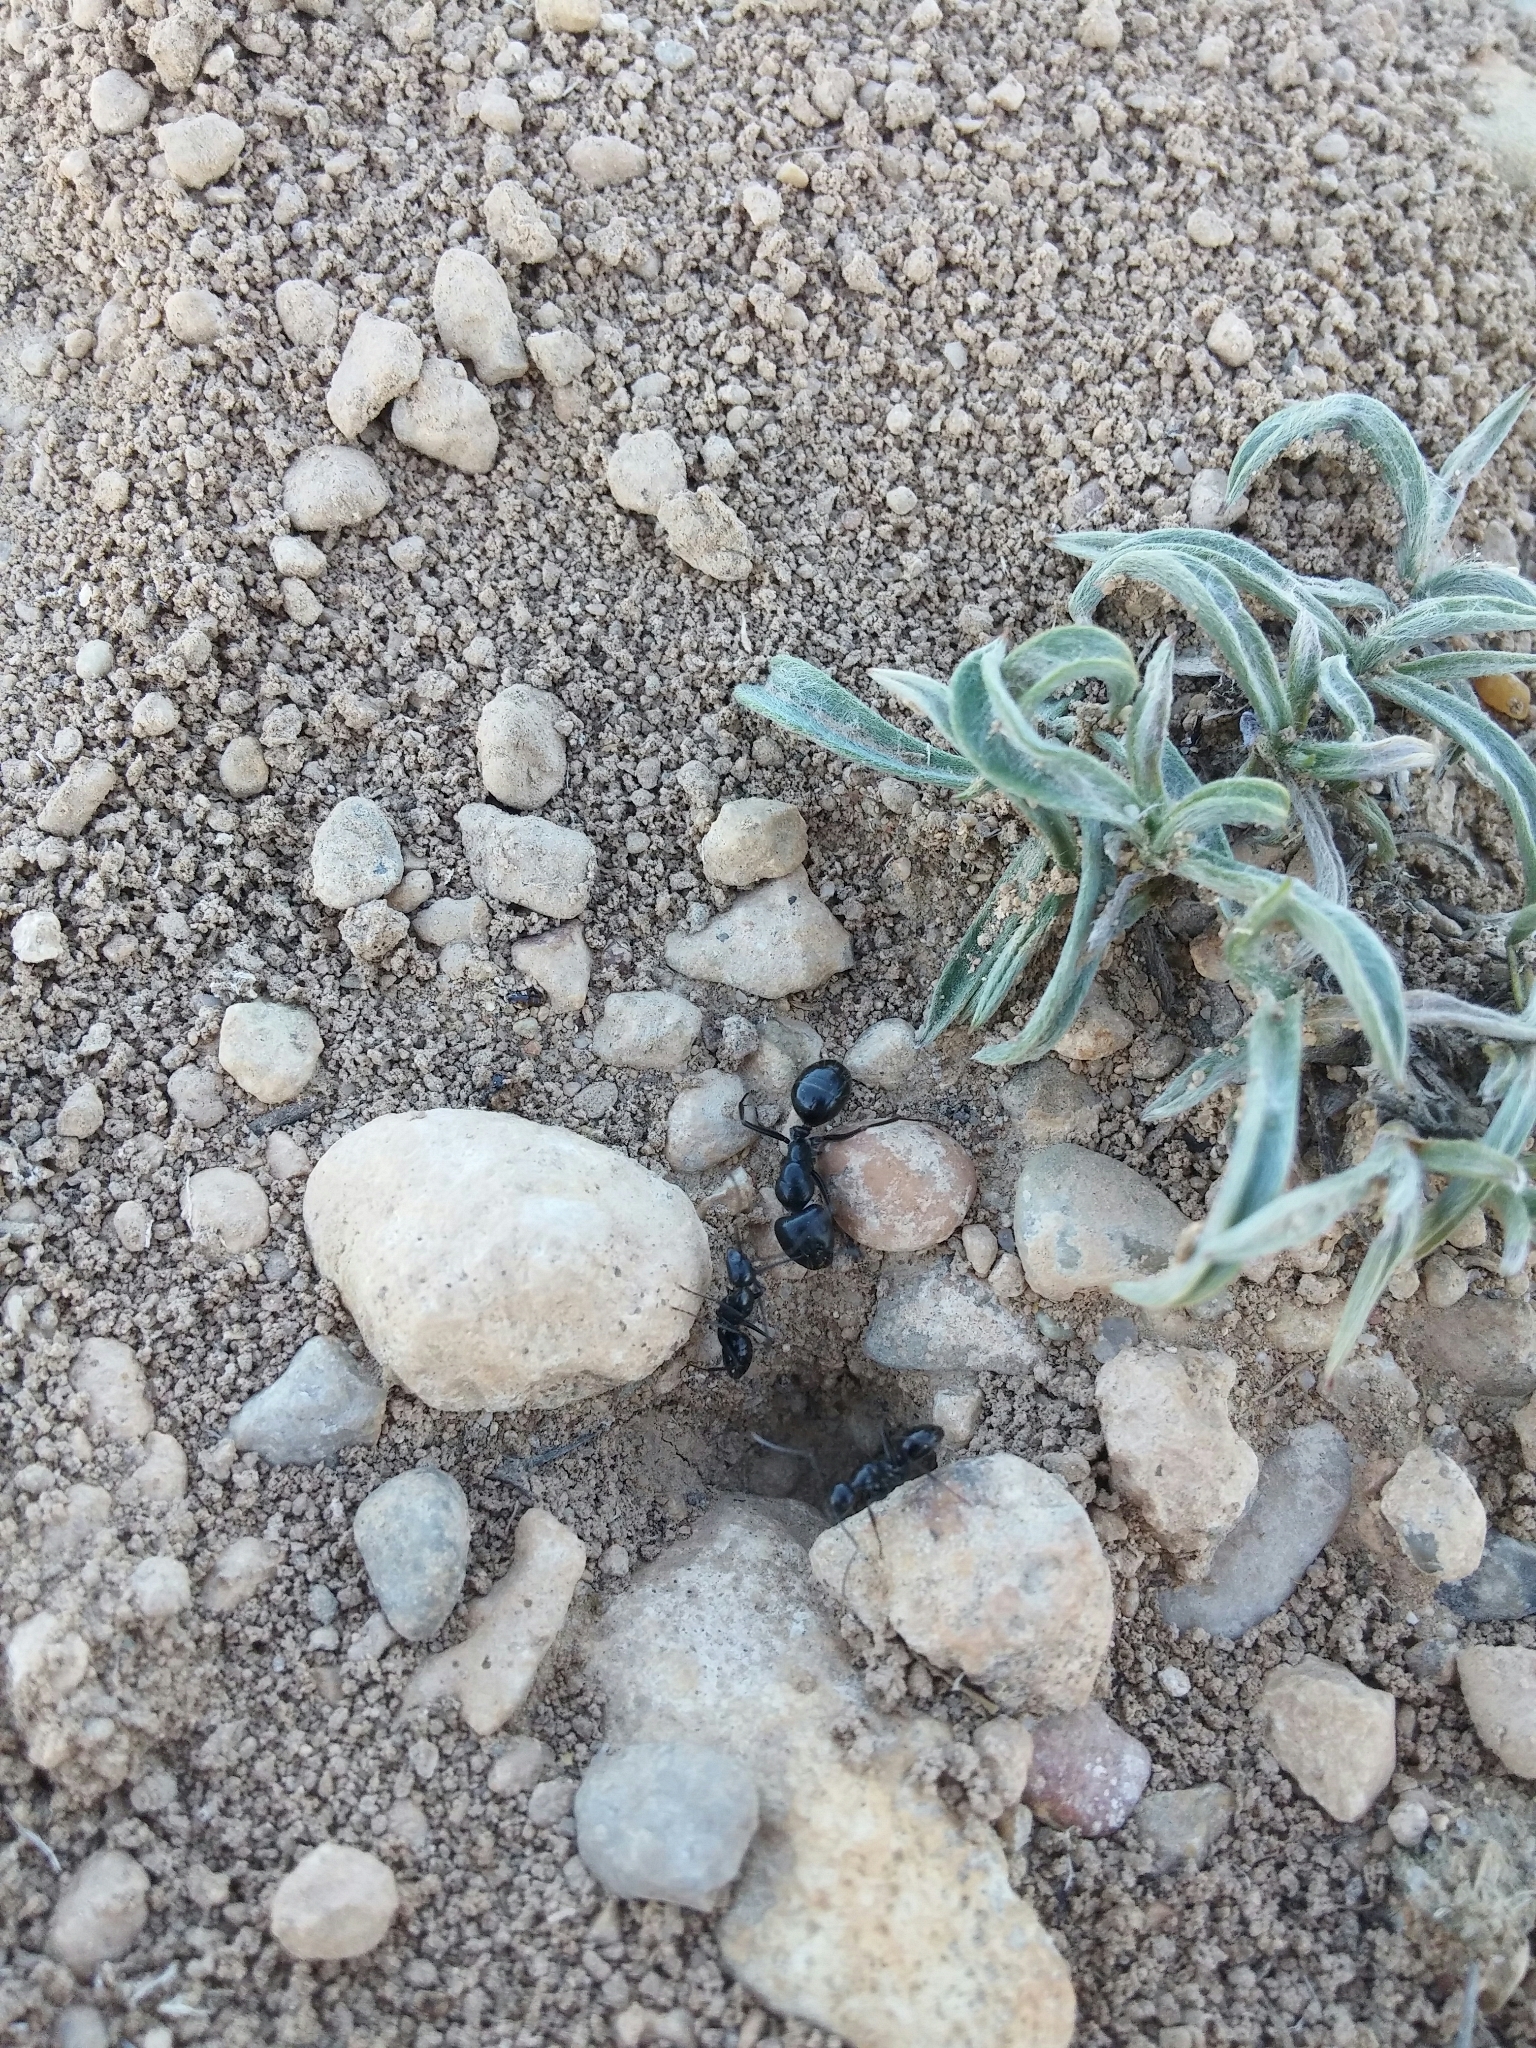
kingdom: Animalia
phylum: Arthropoda
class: Insecta
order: Hymenoptera
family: Formicidae
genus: Camponotus
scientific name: Camponotus aethiops
